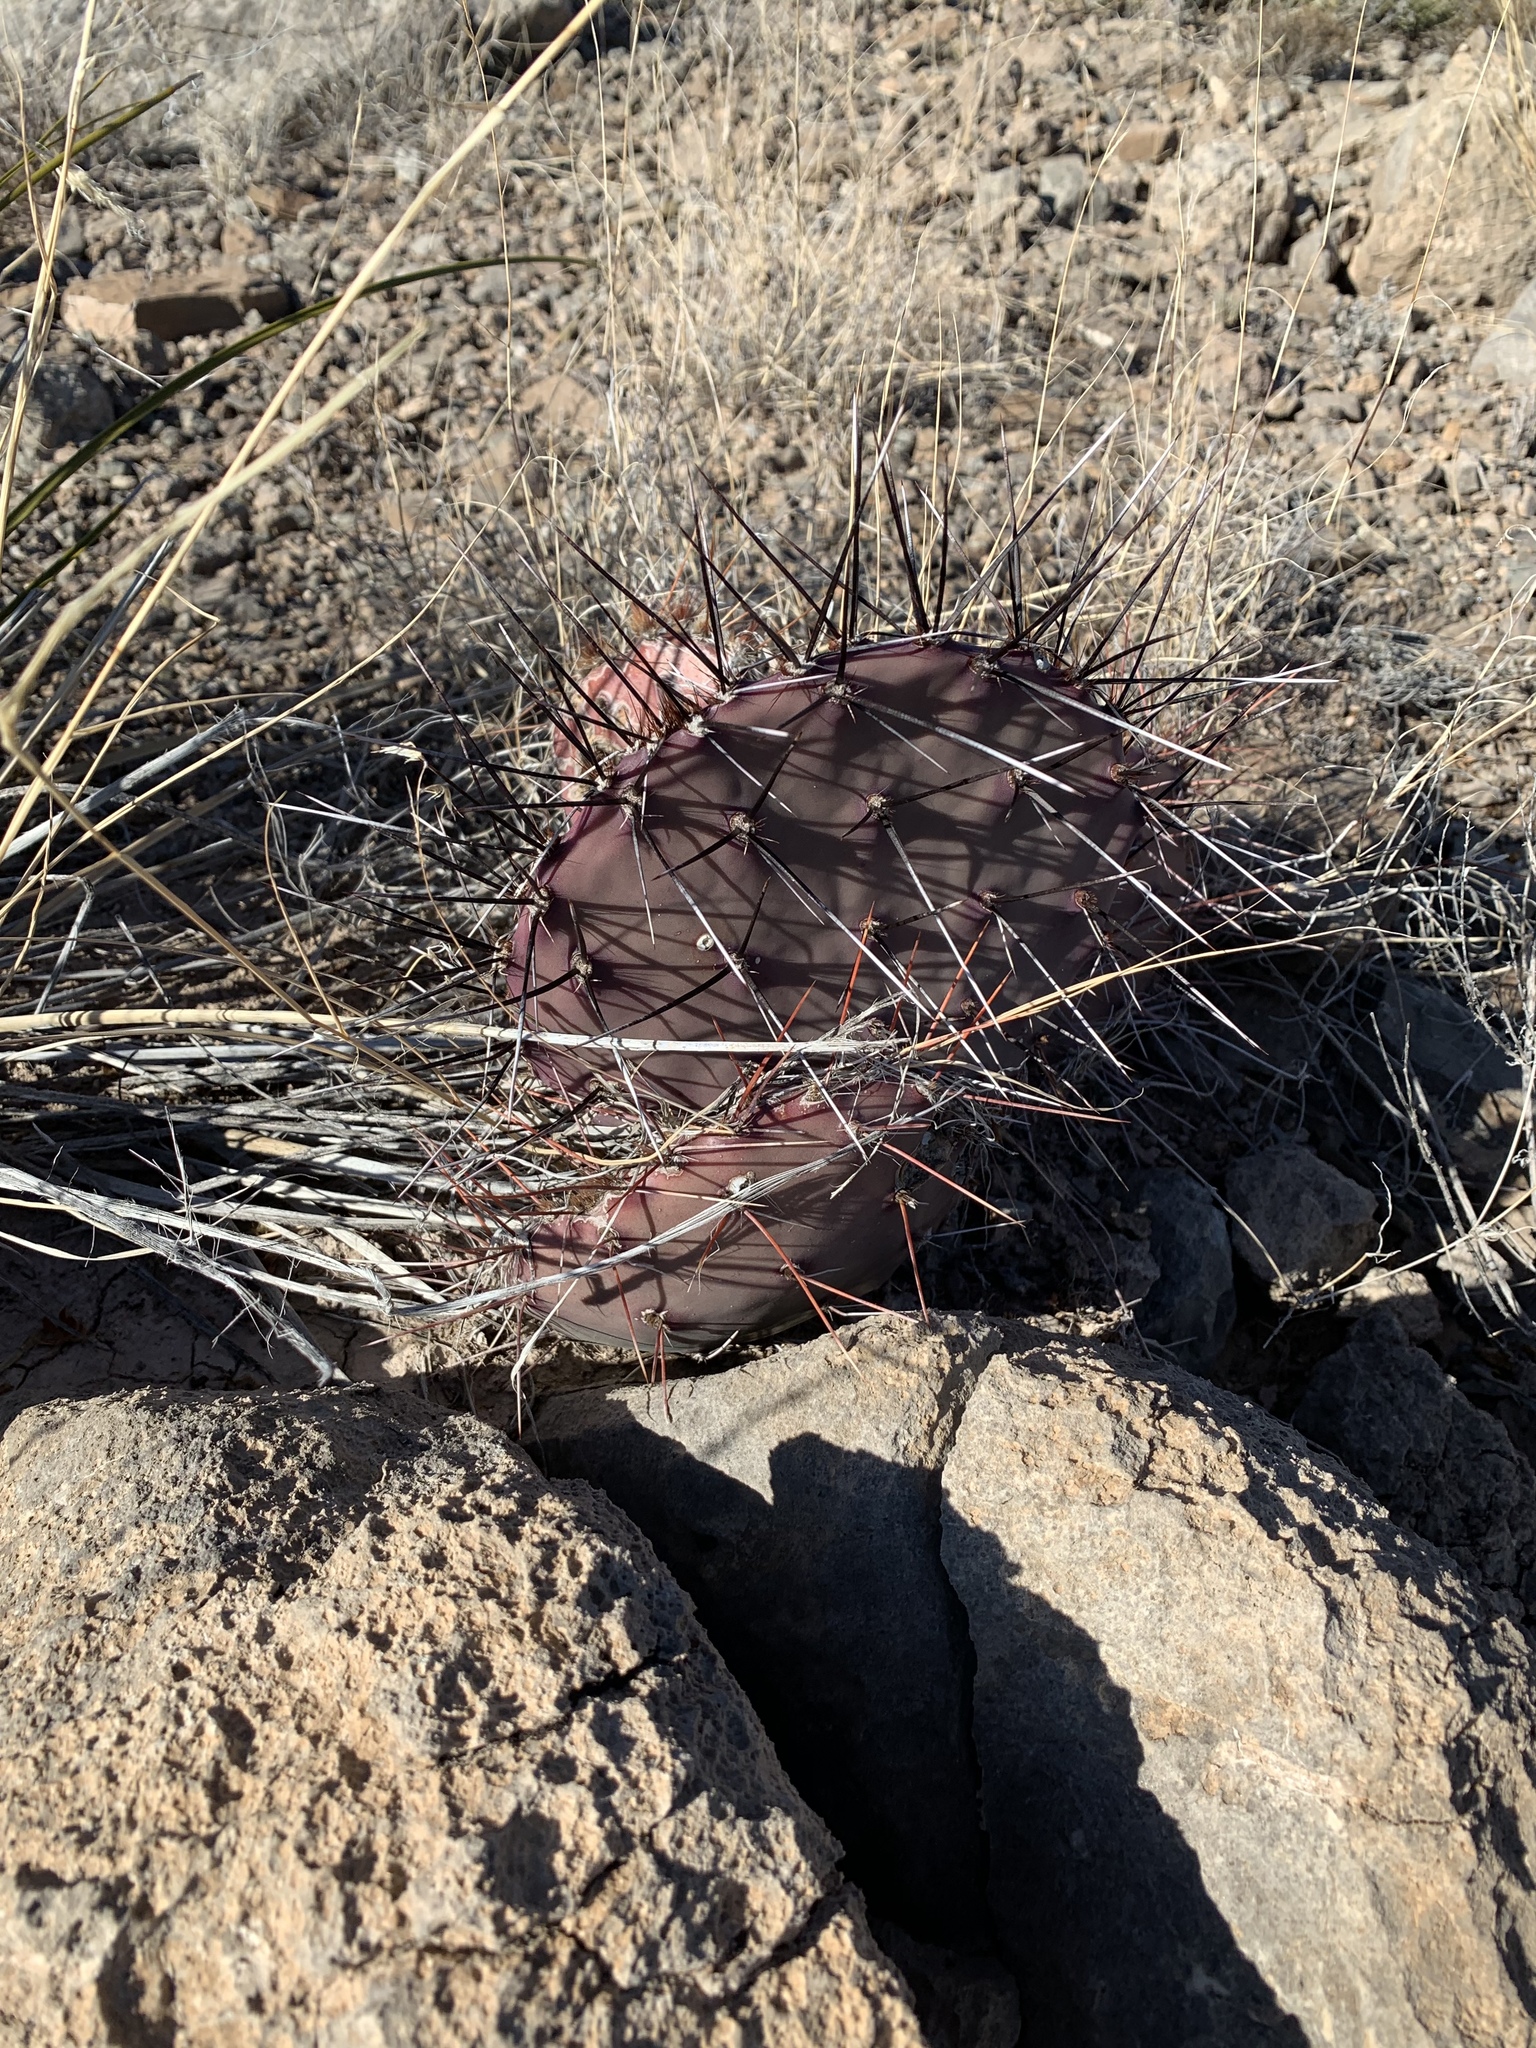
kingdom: Plantae
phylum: Tracheophyta
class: Magnoliopsida
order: Caryophyllales
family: Cactaceae
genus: Opuntia
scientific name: Opuntia macrocentra
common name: Purple prickly-pear
